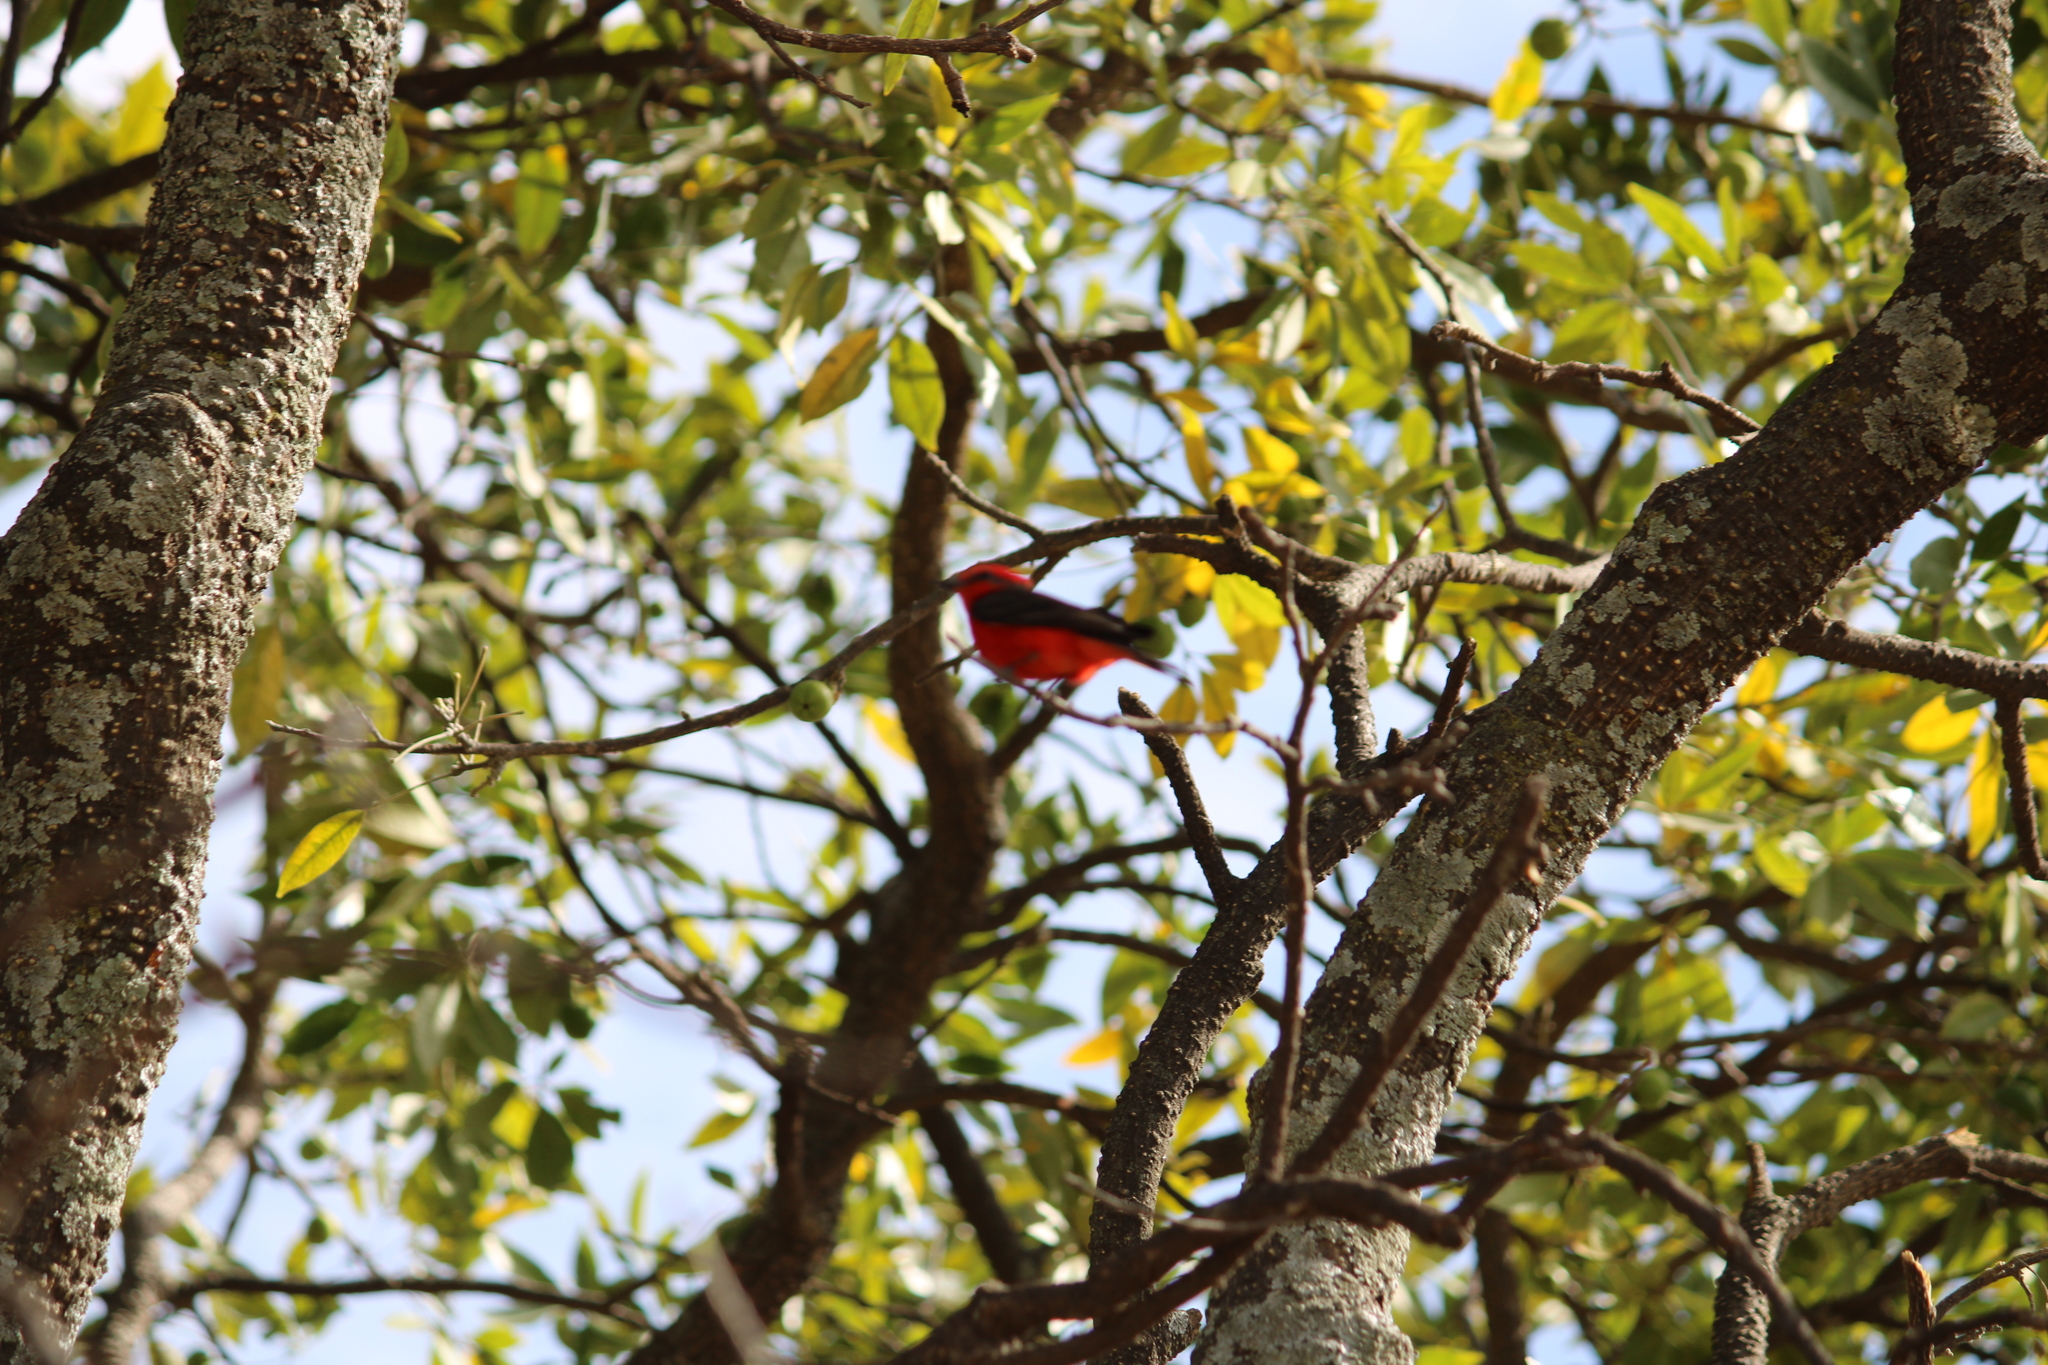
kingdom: Animalia
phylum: Chordata
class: Aves
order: Passeriformes
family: Tyrannidae
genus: Pyrocephalus
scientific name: Pyrocephalus rubinus
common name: Vermilion flycatcher
